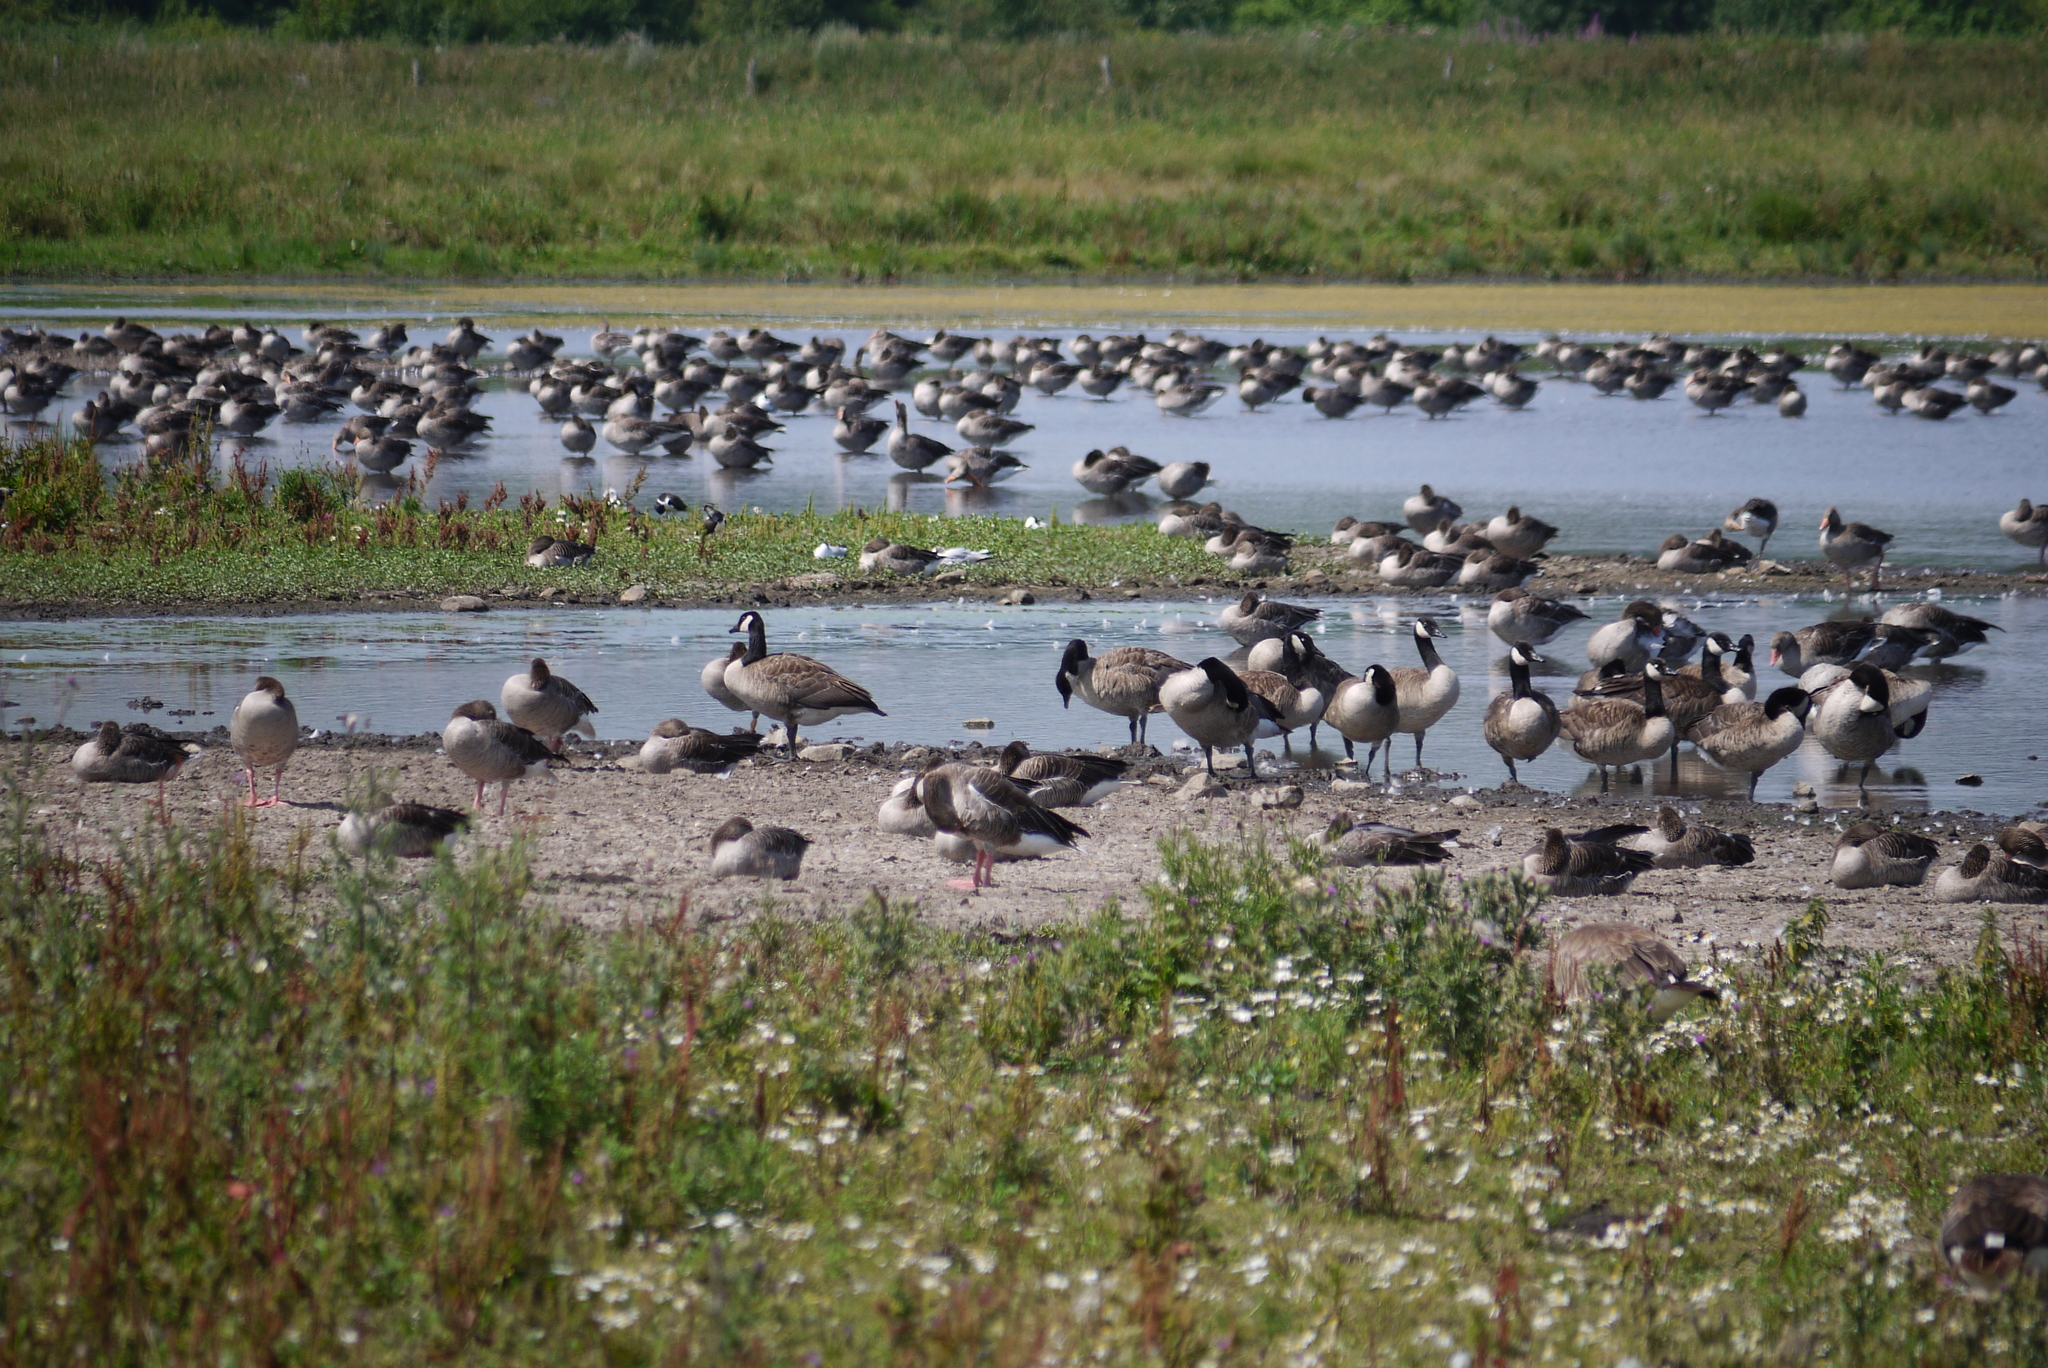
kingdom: Animalia
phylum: Chordata
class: Aves
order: Anseriformes
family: Anatidae
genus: Branta
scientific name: Branta canadensis
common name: Canada goose
